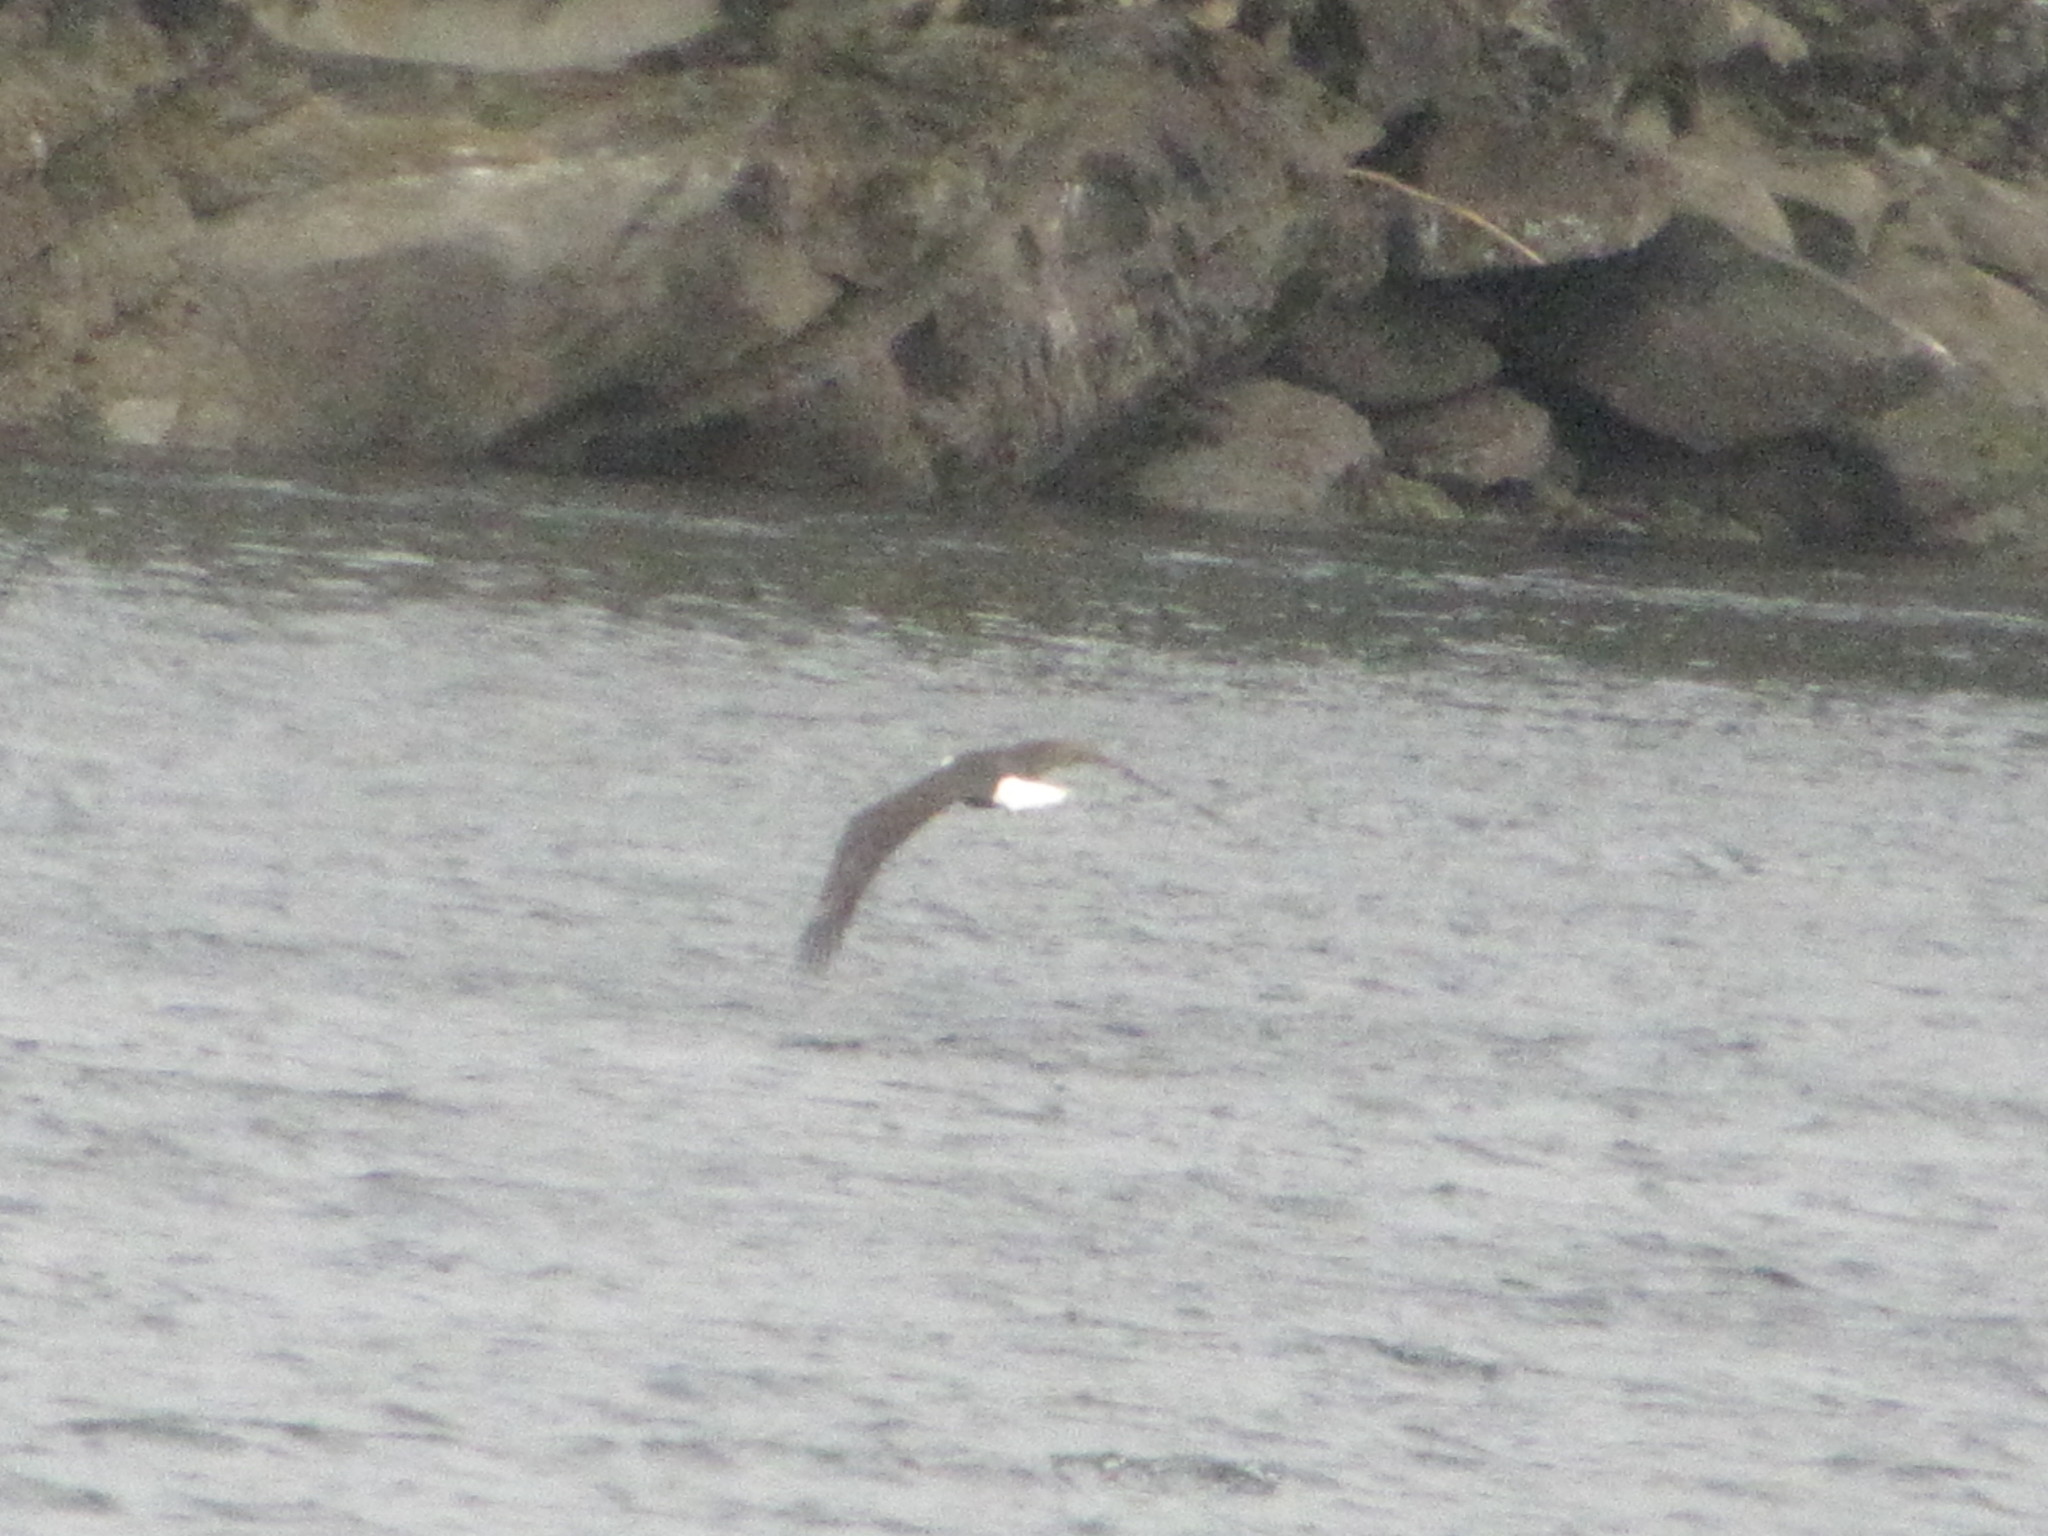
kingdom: Animalia
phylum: Chordata
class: Aves
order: Accipitriformes
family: Accipitridae
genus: Haliaeetus
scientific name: Haliaeetus leucocephalus
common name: Bald eagle
